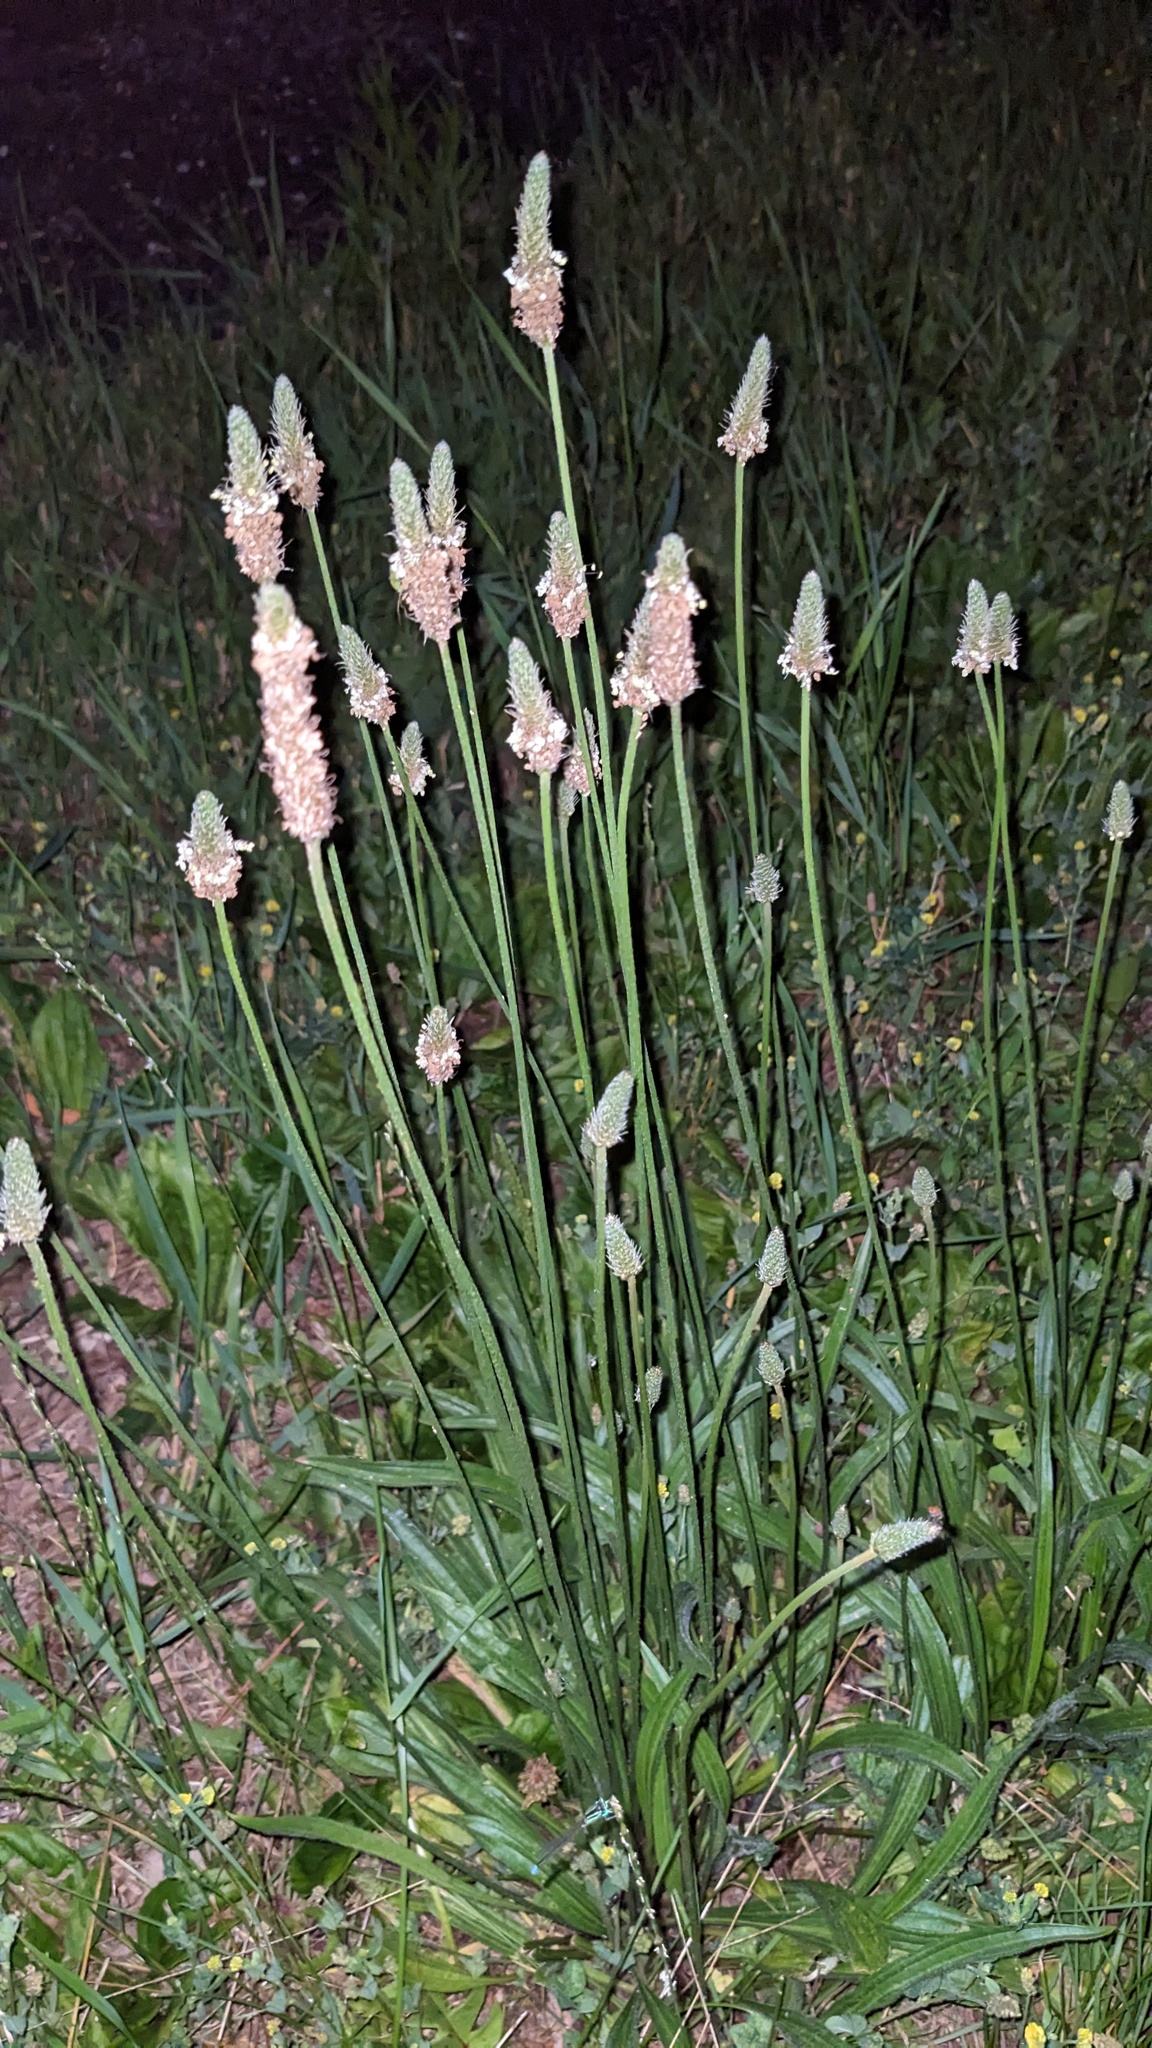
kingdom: Plantae
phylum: Tracheophyta
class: Magnoliopsida
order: Lamiales
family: Plantaginaceae
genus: Plantago
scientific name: Plantago lanceolata
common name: Ribwort plantain
